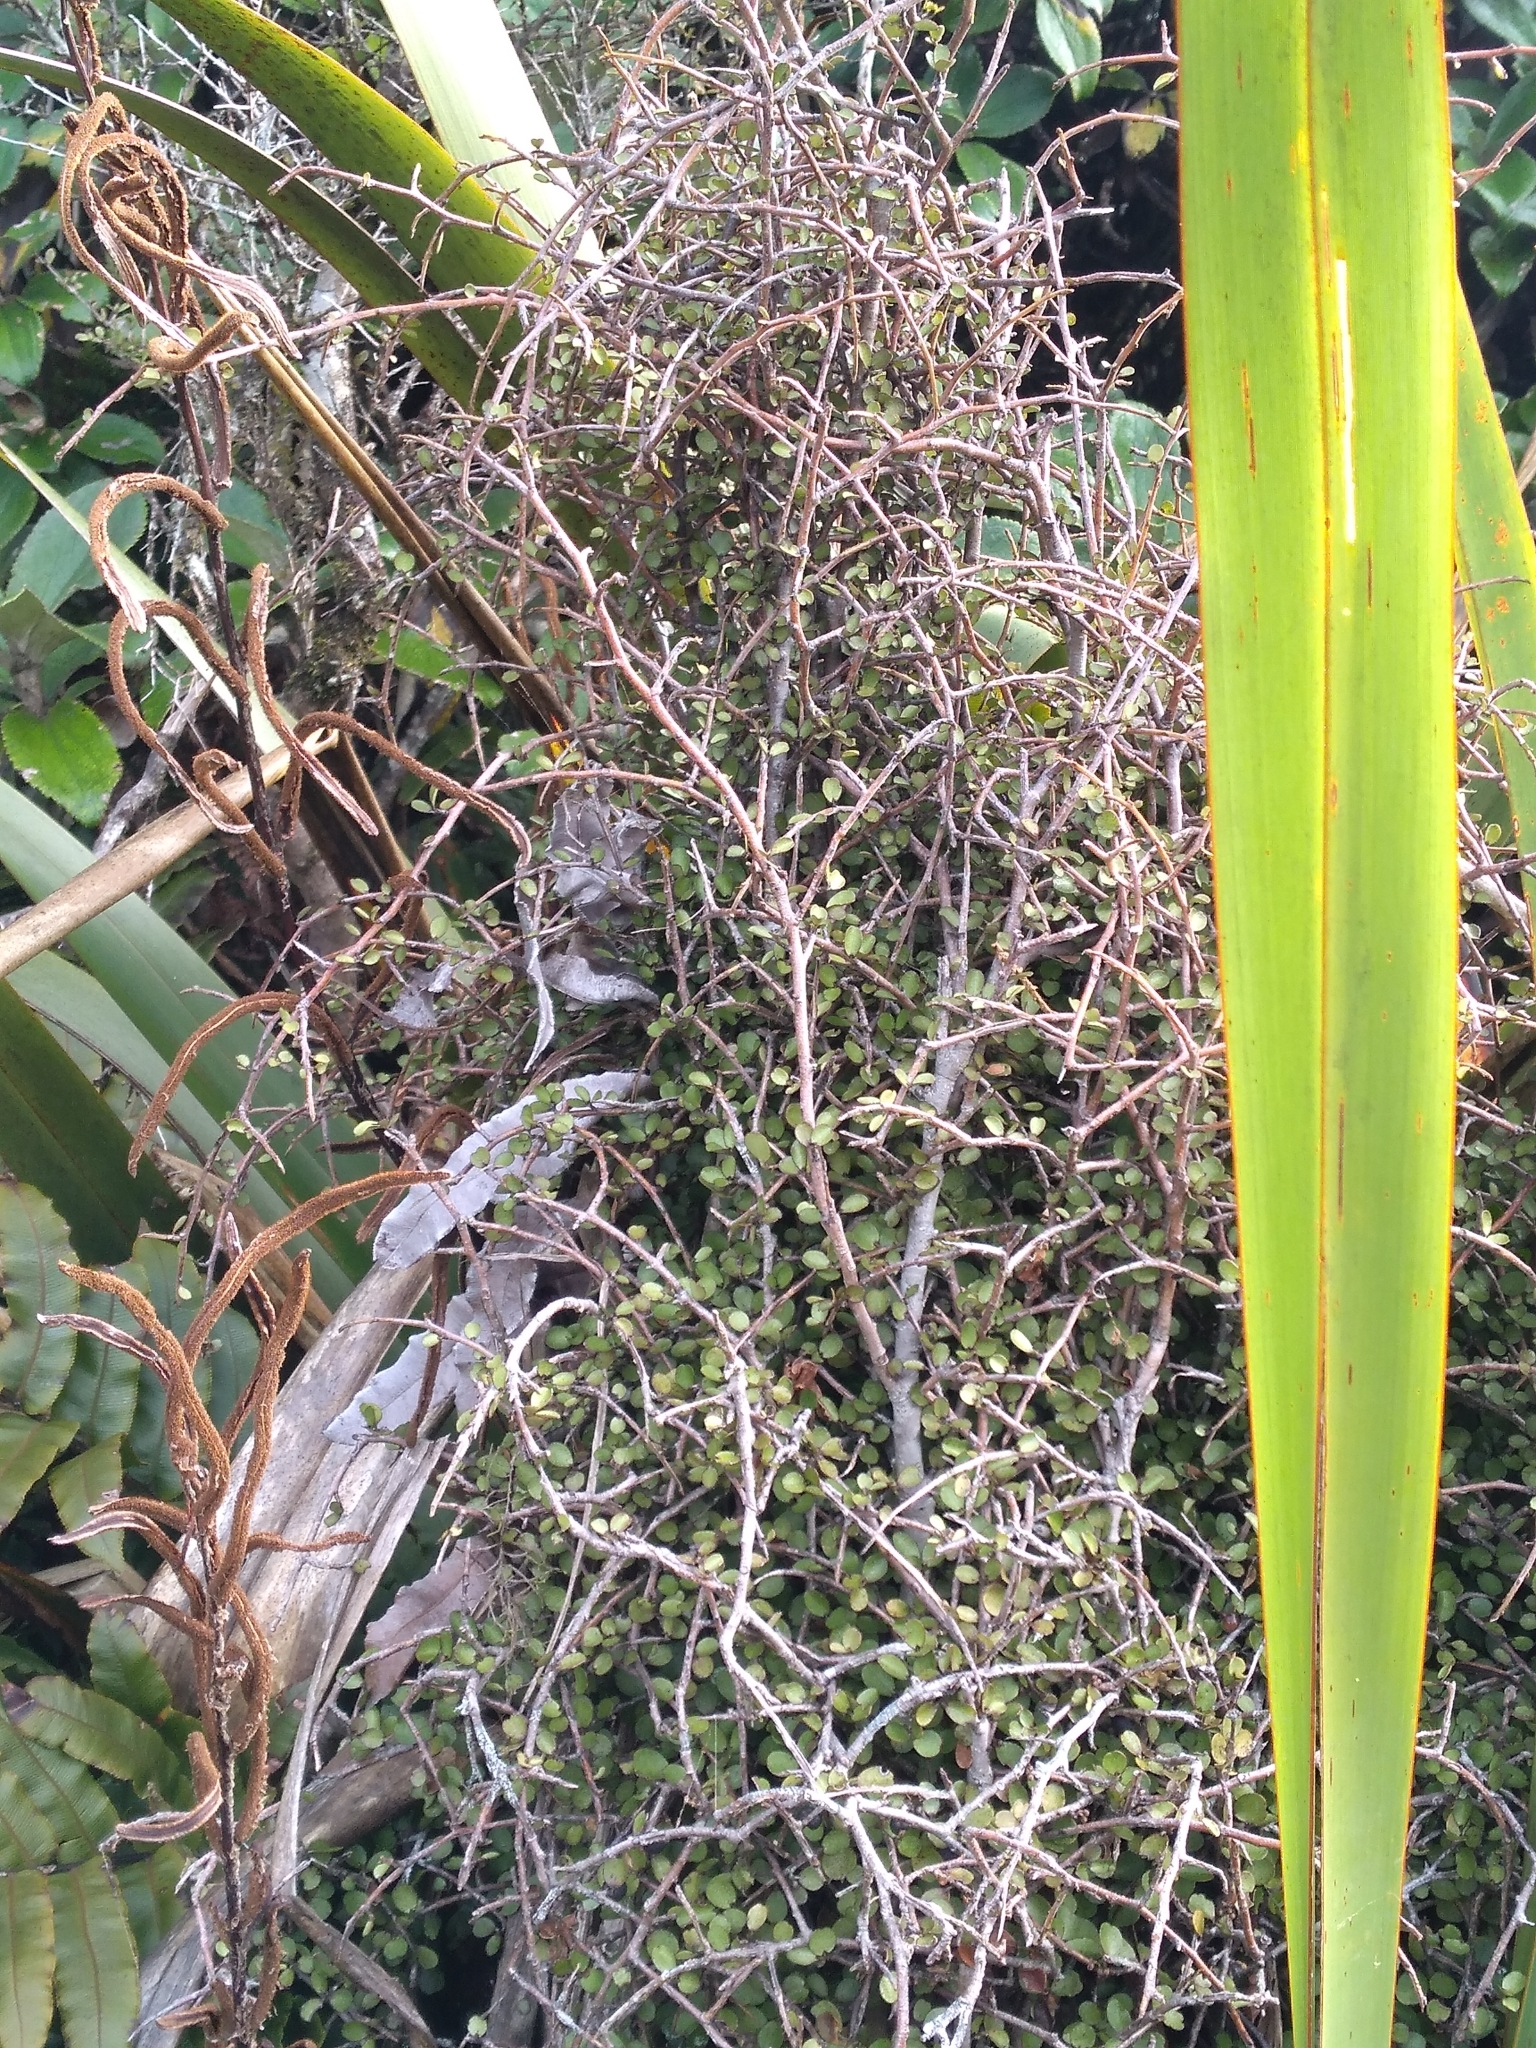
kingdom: Plantae
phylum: Tracheophyta
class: Magnoliopsida
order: Ericales
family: Primulaceae
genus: Myrsine
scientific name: Myrsine divaricata
